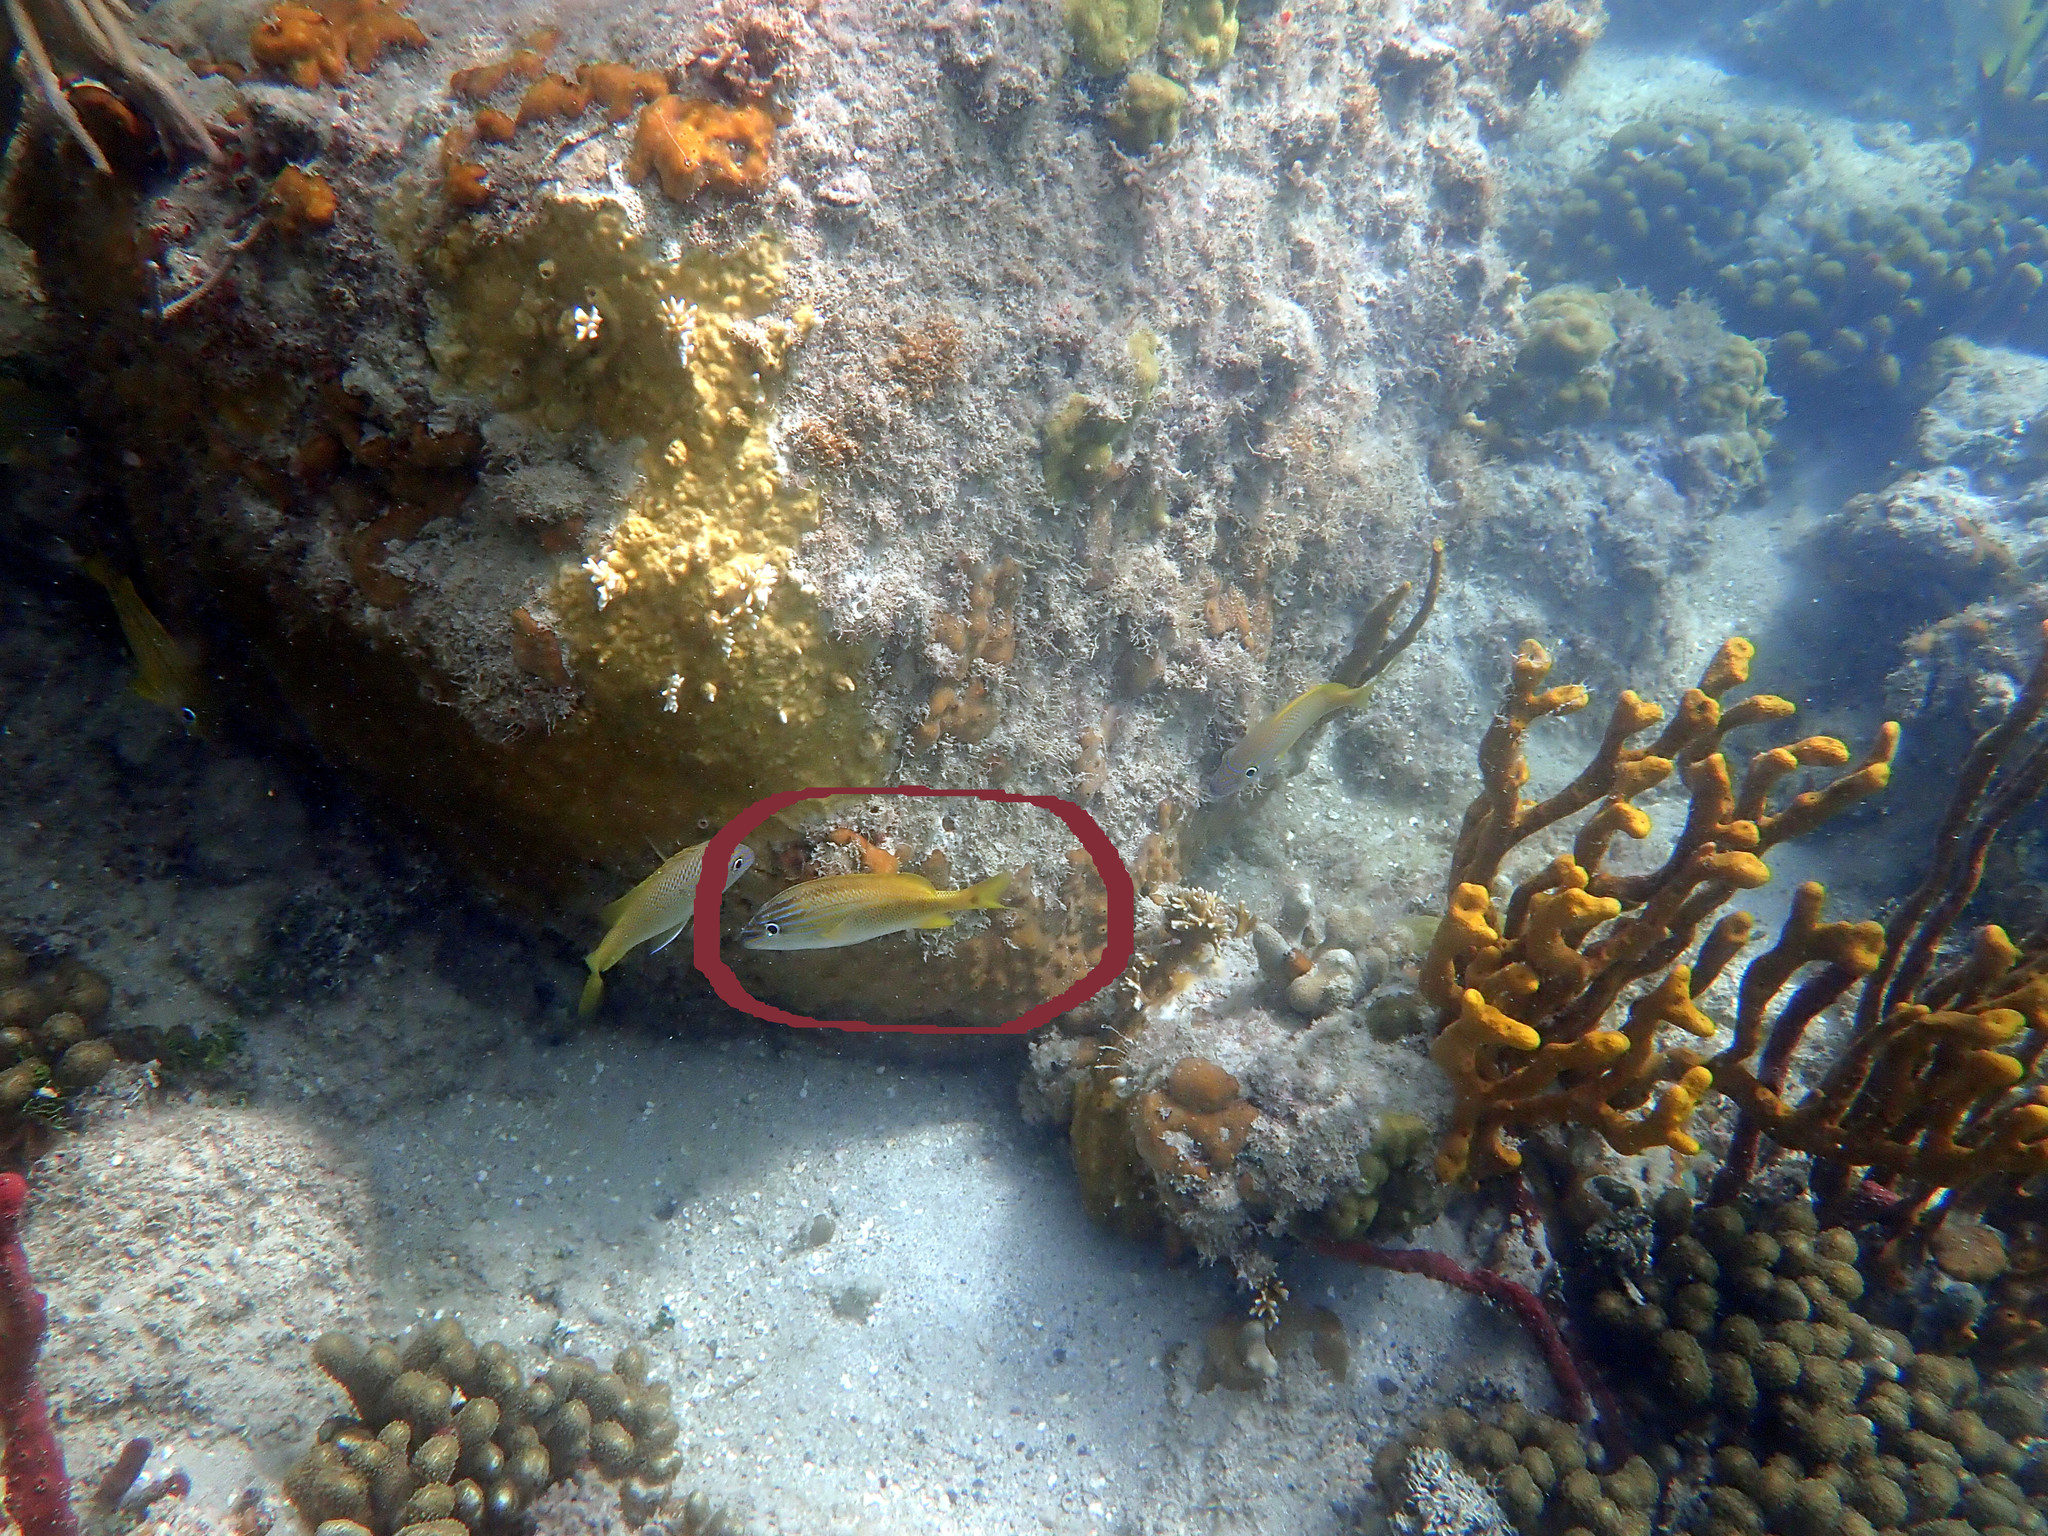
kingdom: Animalia
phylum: Chordata
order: Perciformes
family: Haemulidae
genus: Haemulon
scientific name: Haemulon plumierii
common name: White grunt
